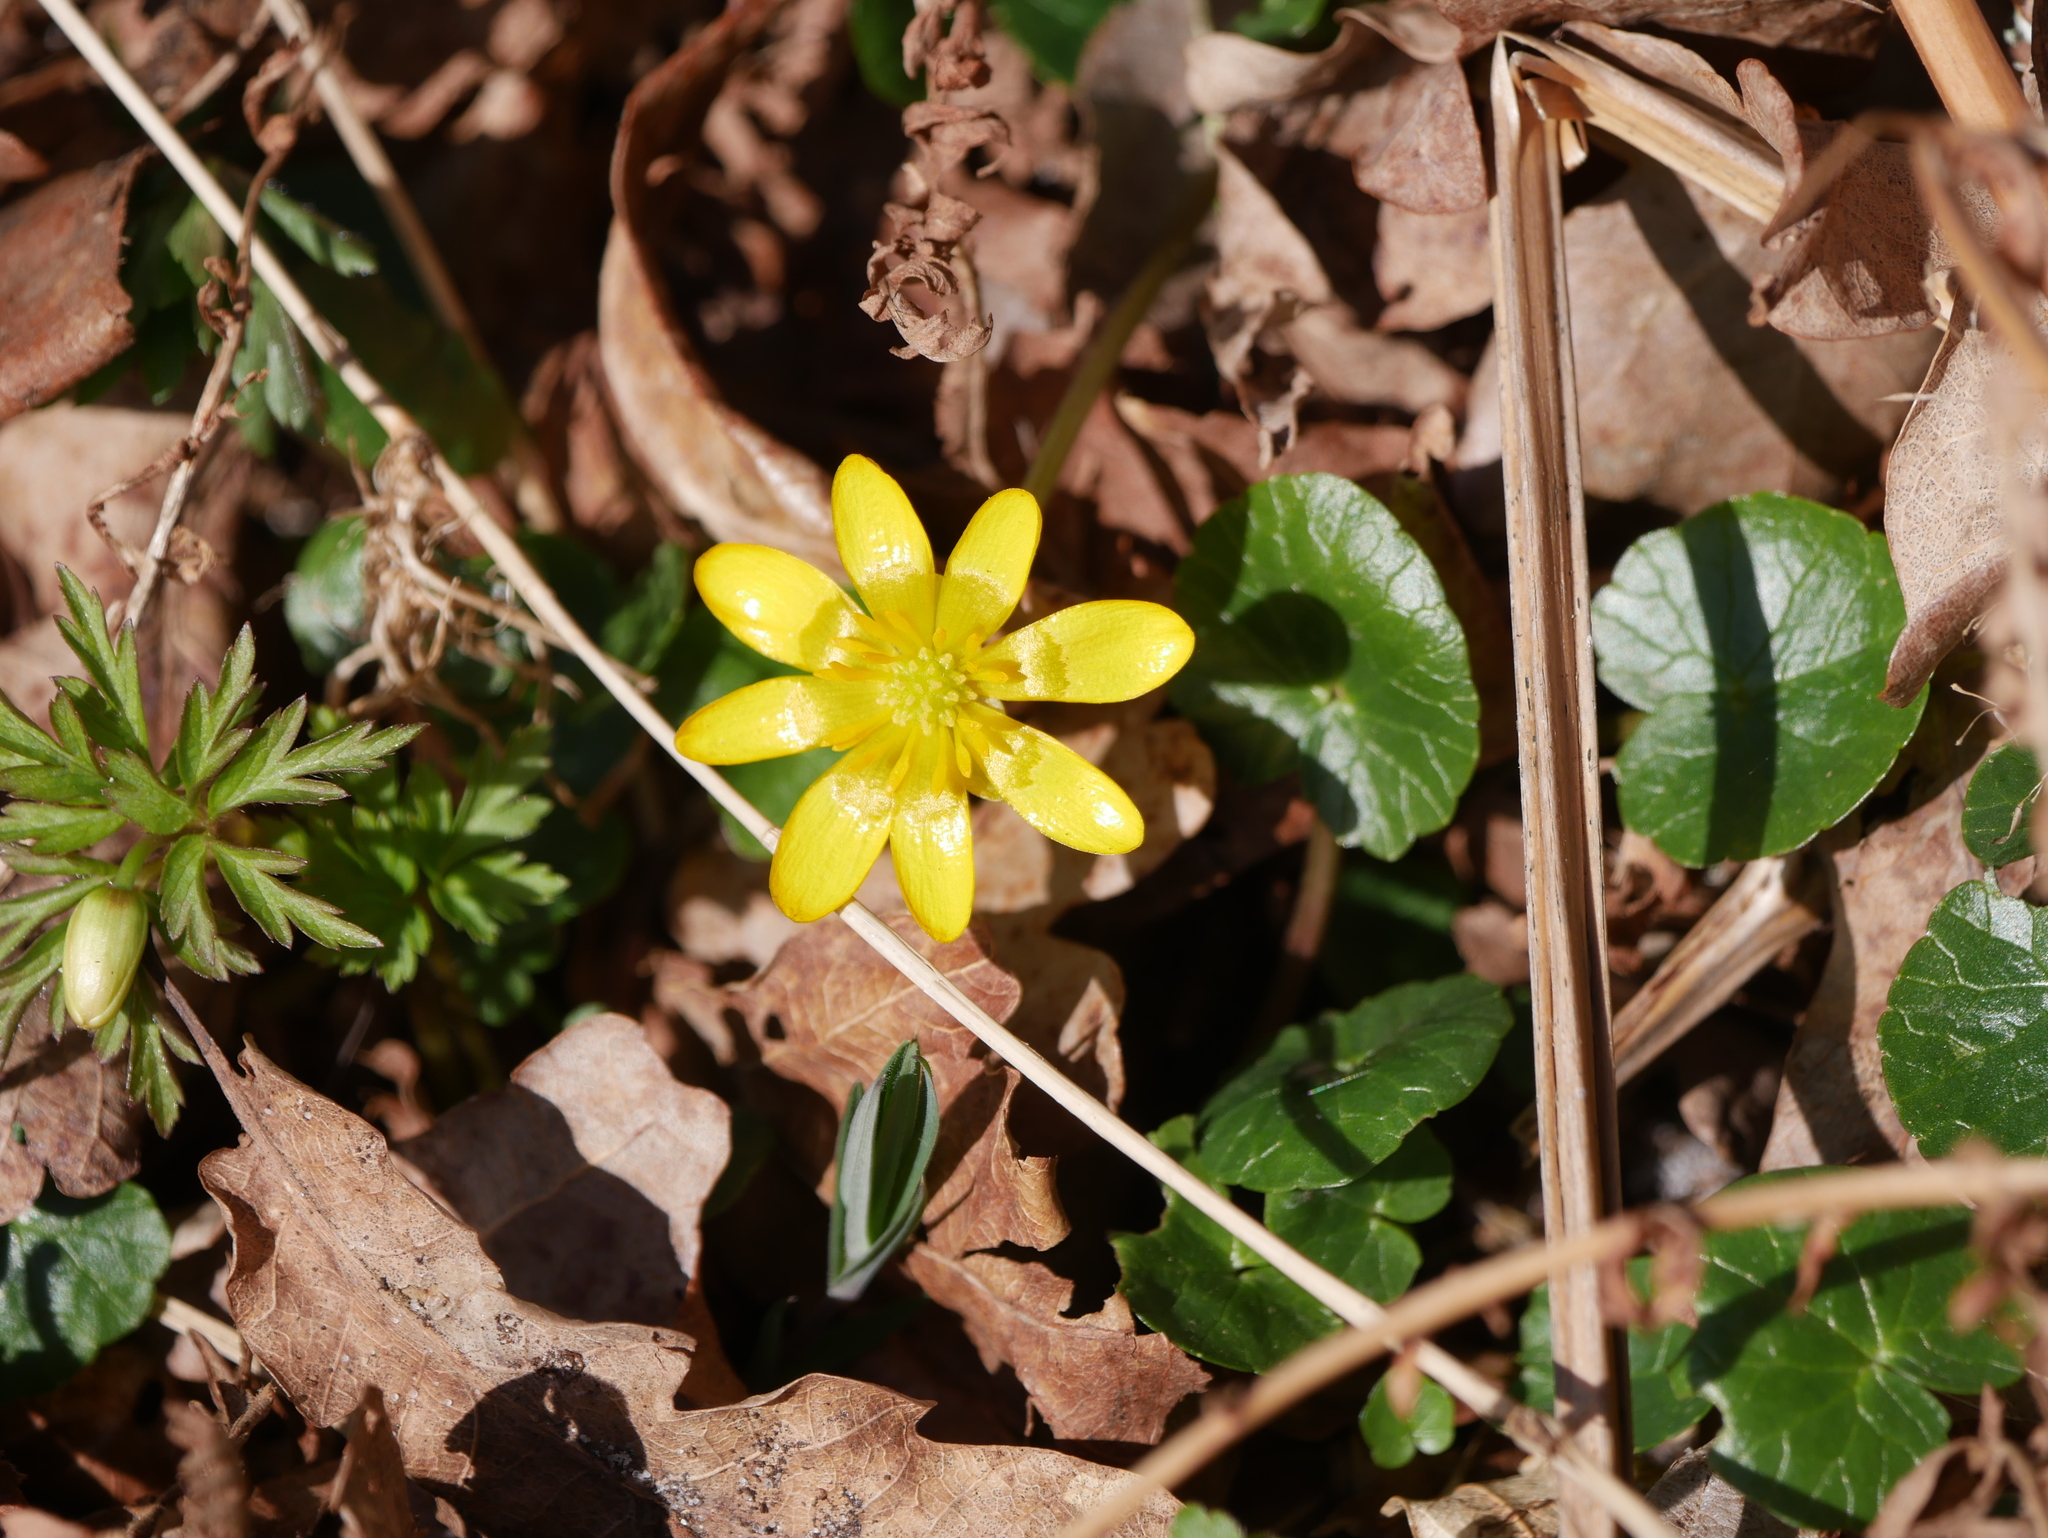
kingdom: Plantae
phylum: Tracheophyta
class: Magnoliopsida
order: Ranunculales
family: Ranunculaceae
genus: Ficaria
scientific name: Ficaria verna
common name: Lesser celandine
